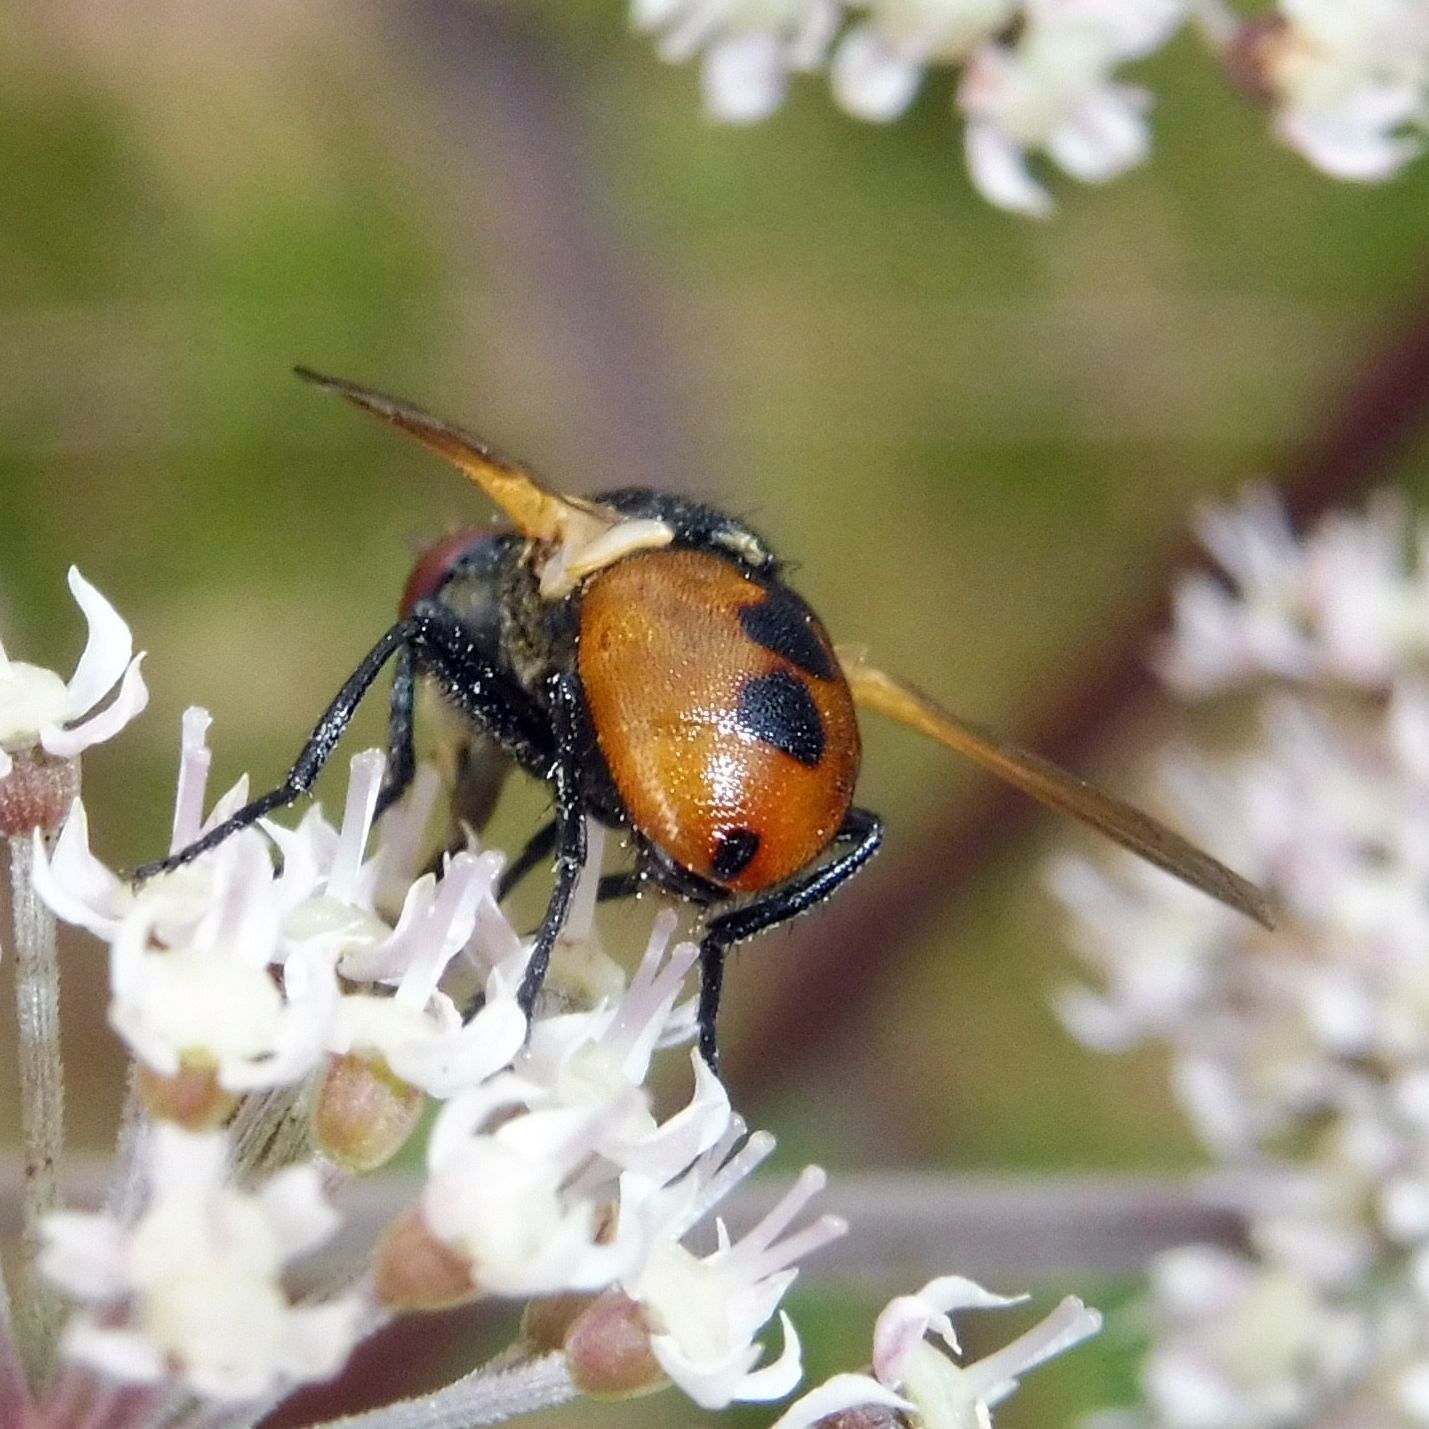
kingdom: Animalia
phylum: Arthropoda
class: Insecta
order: Diptera
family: Tachinidae
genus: Gymnosoma
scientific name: Gymnosoma rotundatum
